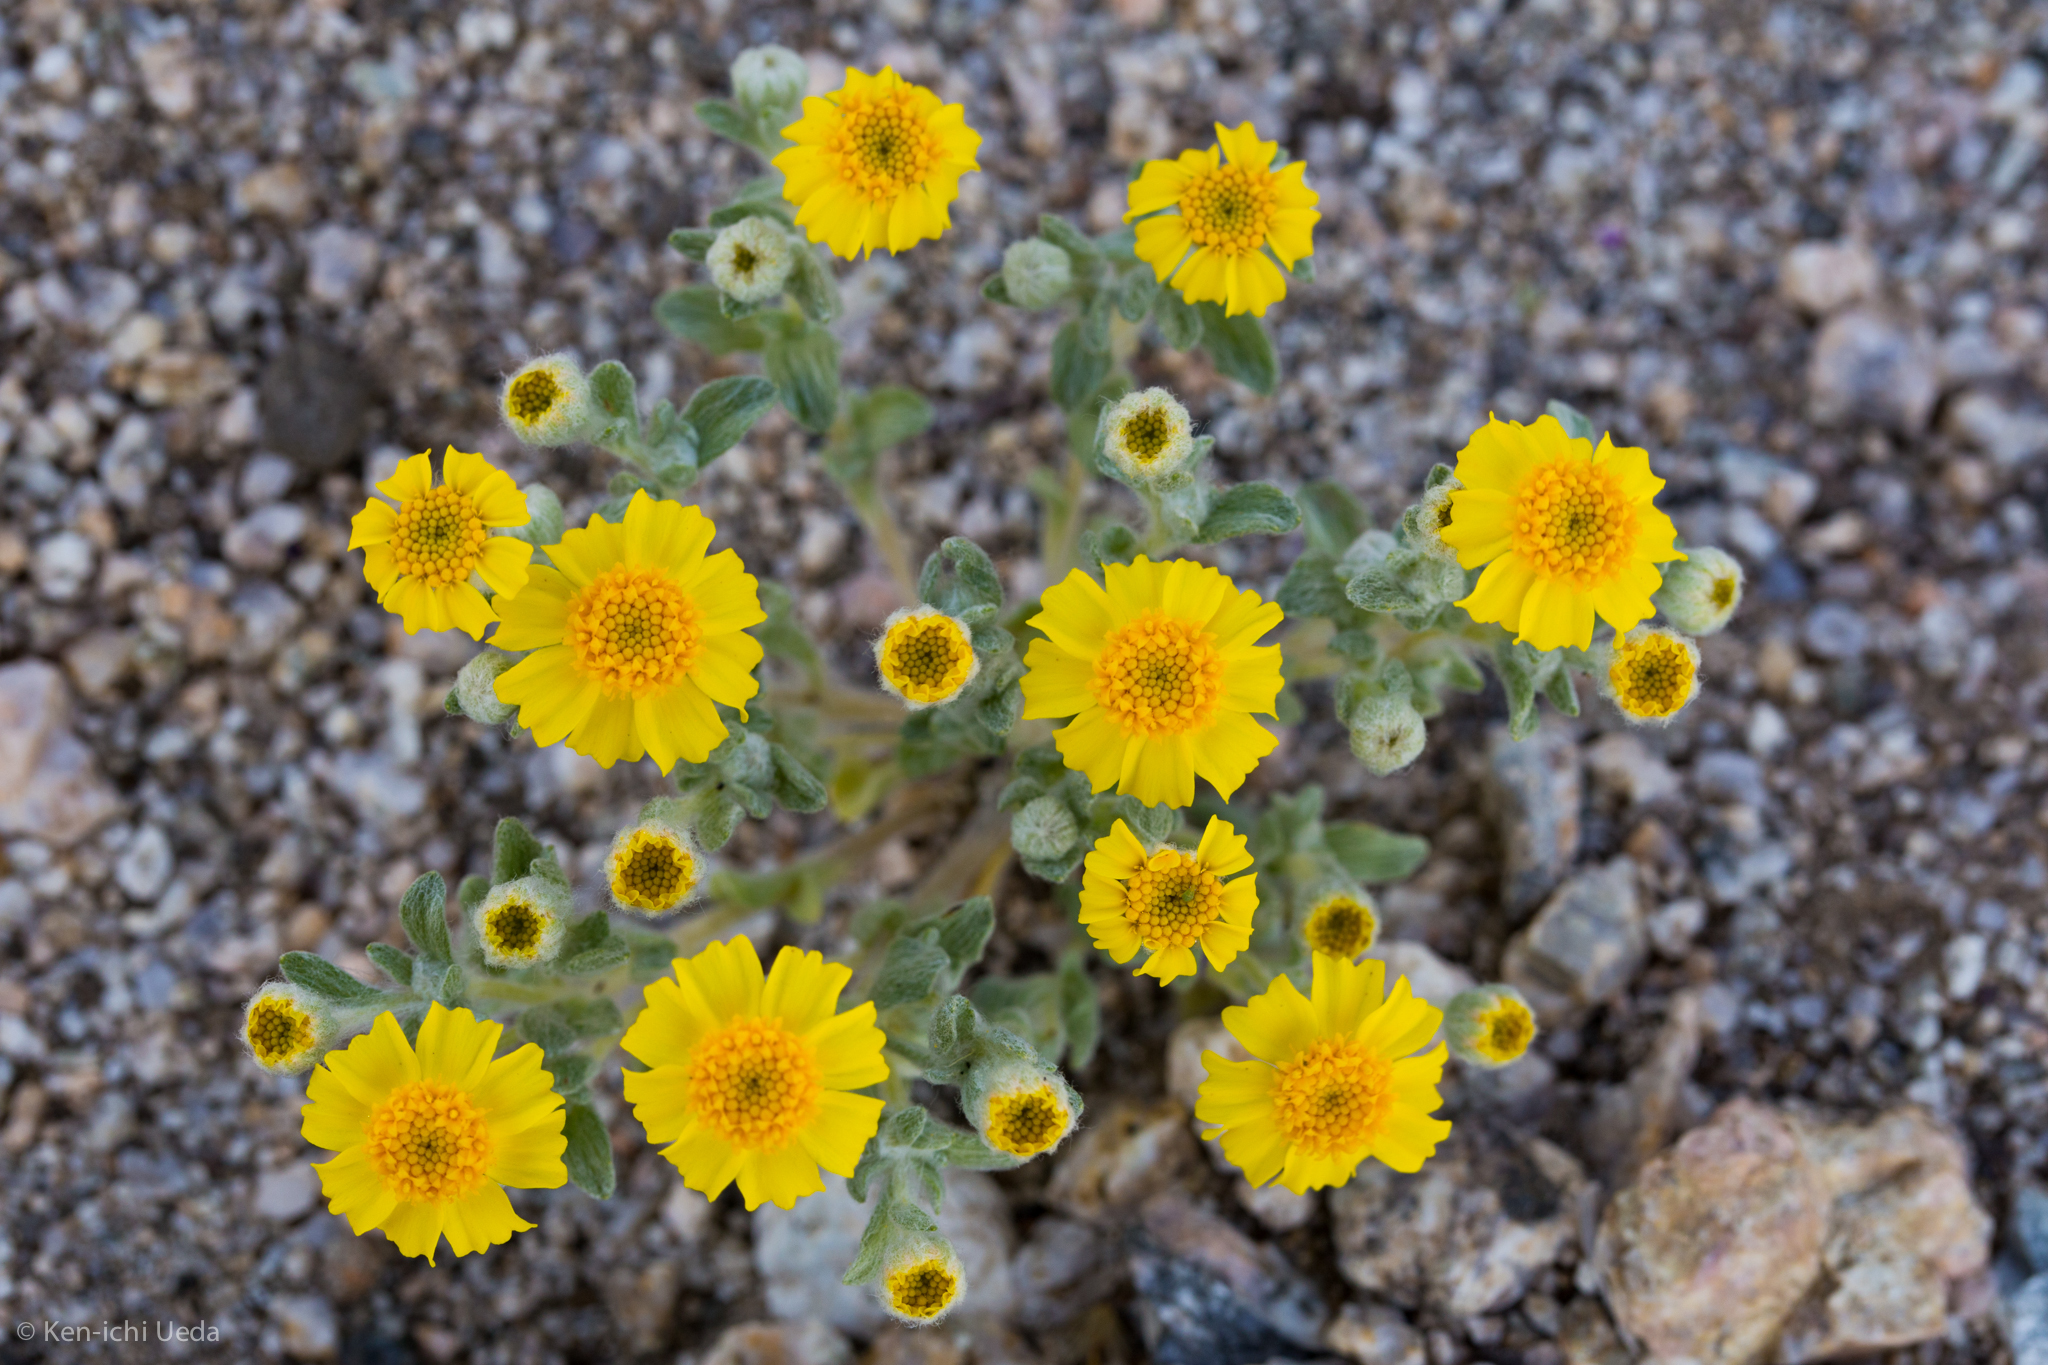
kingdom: Plantae
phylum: Tracheophyta
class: Magnoliopsida
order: Asterales
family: Asteraceae
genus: Eriophyllum
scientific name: Eriophyllum wallacei
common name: Wallace's woolly daisy
